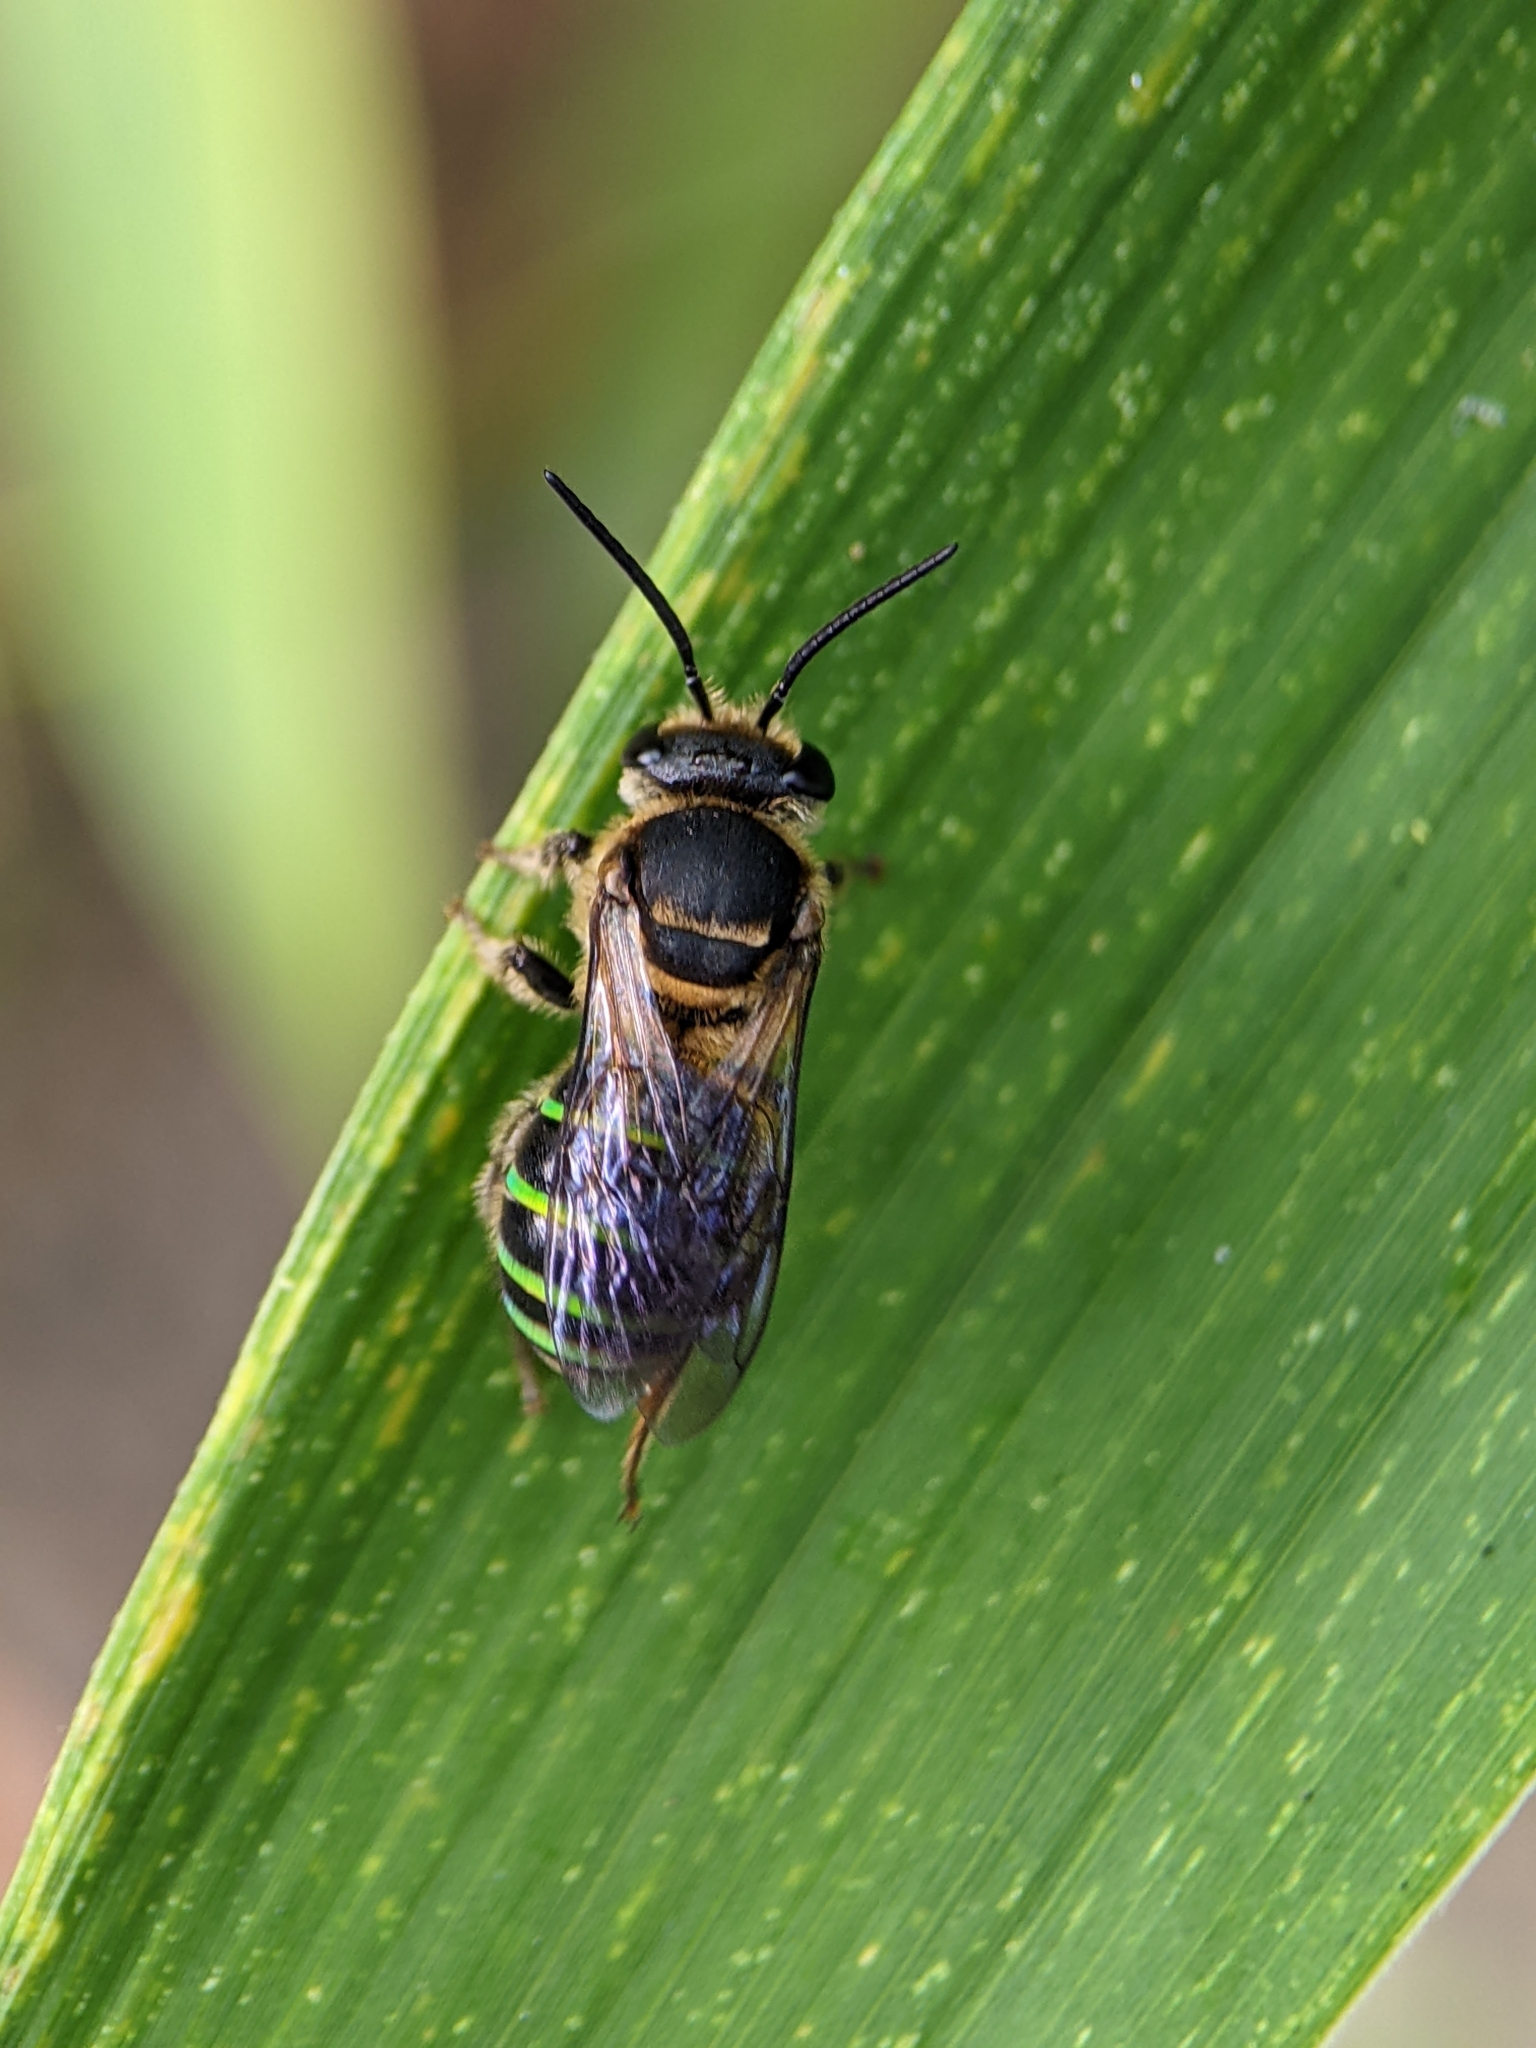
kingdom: Animalia
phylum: Arthropoda
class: Insecta
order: Hymenoptera
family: Halictidae
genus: Nomia
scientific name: Nomia strigata
